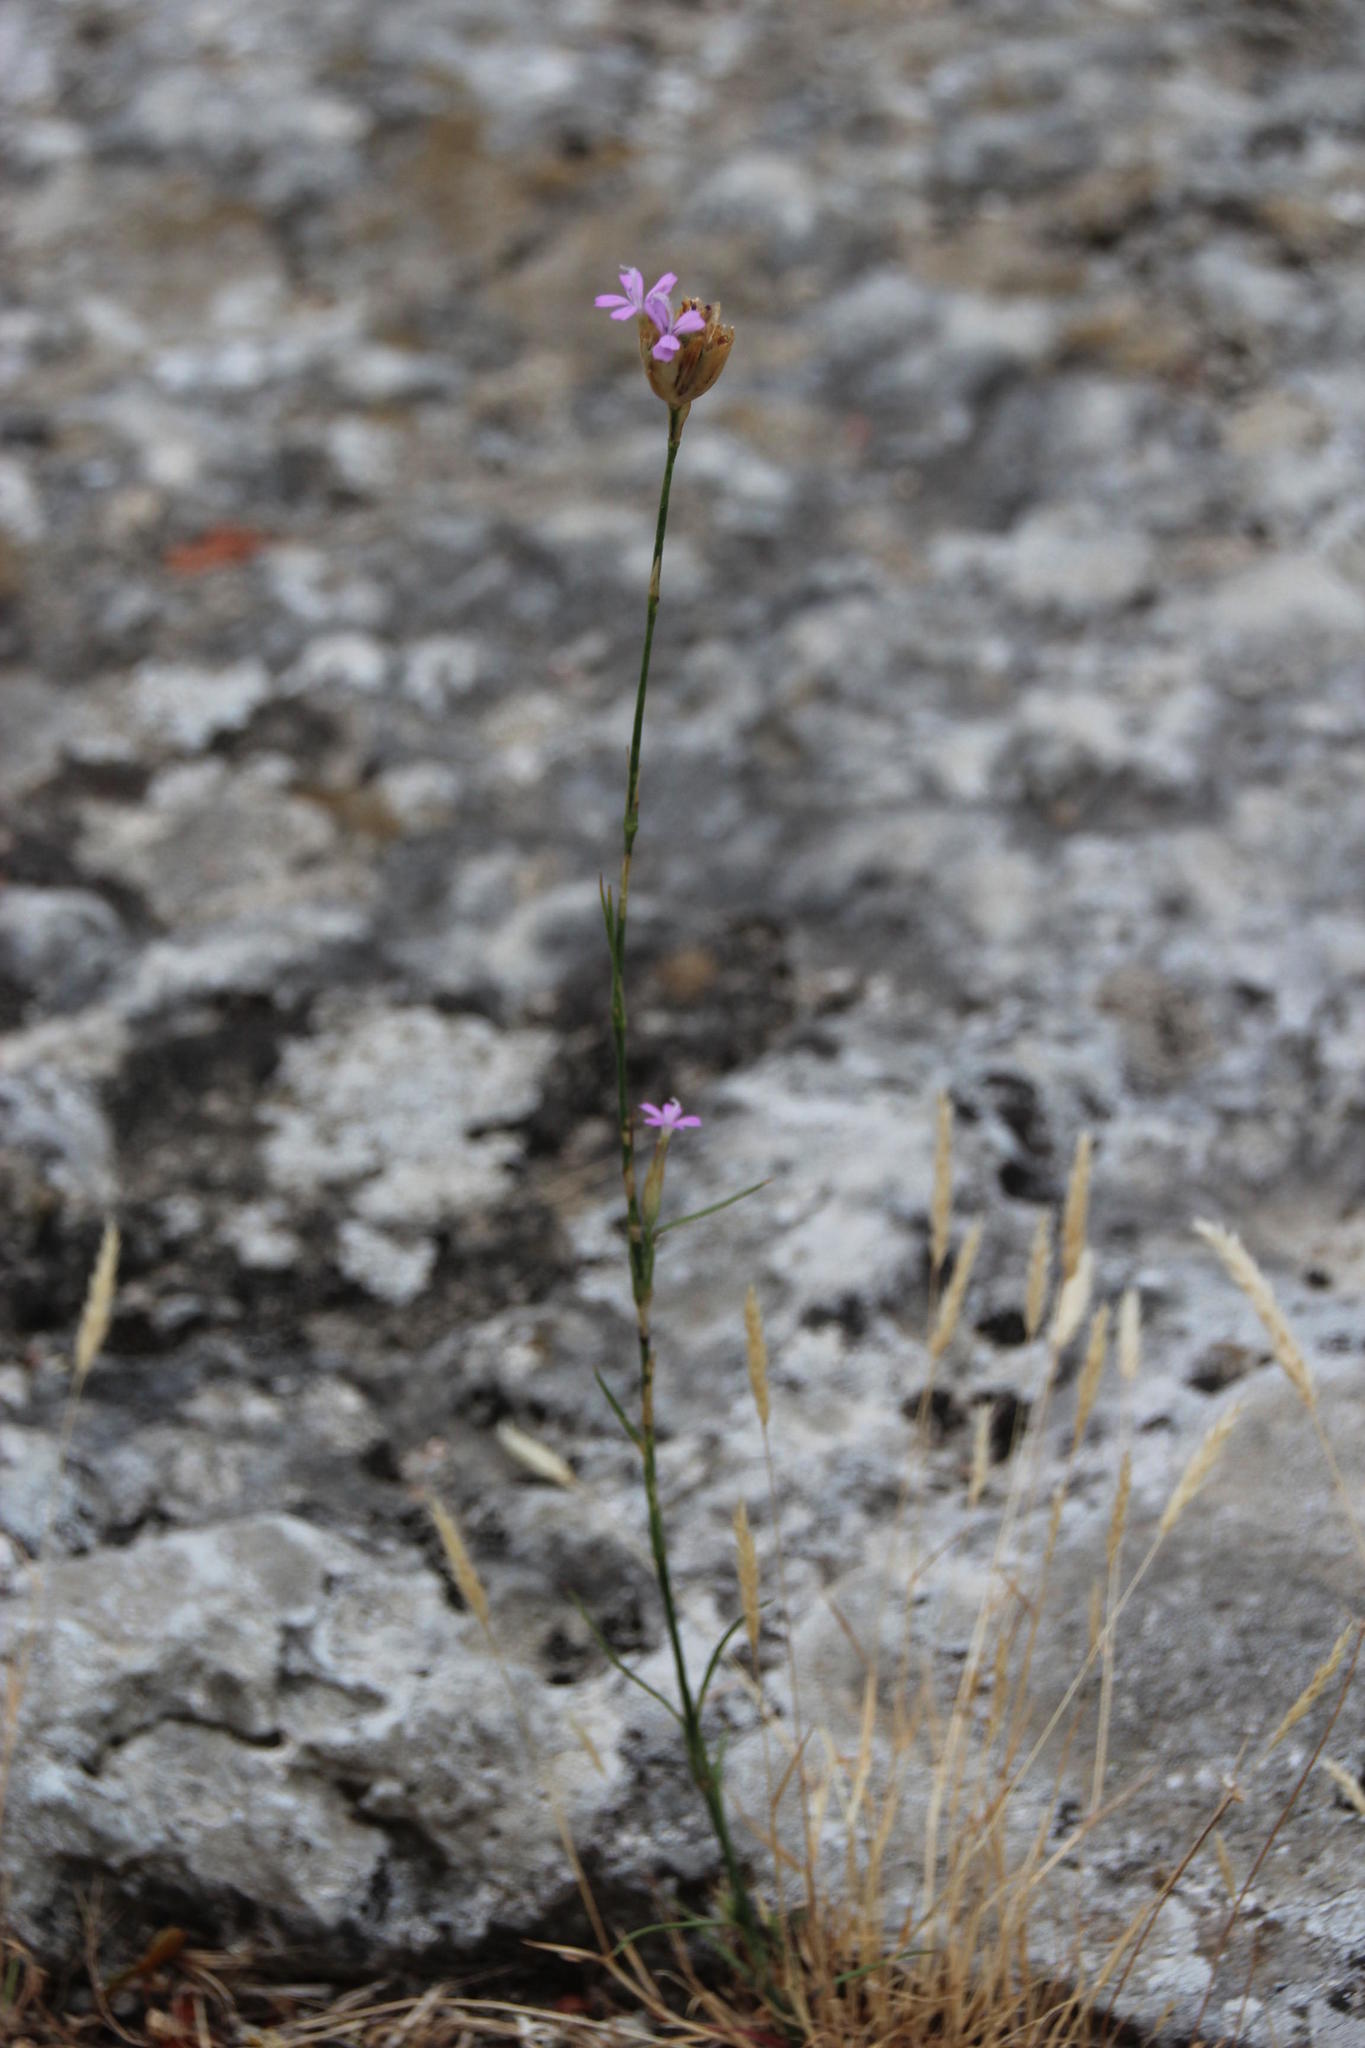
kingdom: Plantae
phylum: Tracheophyta
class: Magnoliopsida
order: Caryophyllales
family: Caryophyllaceae
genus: Petrorhagia
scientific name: Petrorhagia nanteuilii
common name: Proliferous pink
